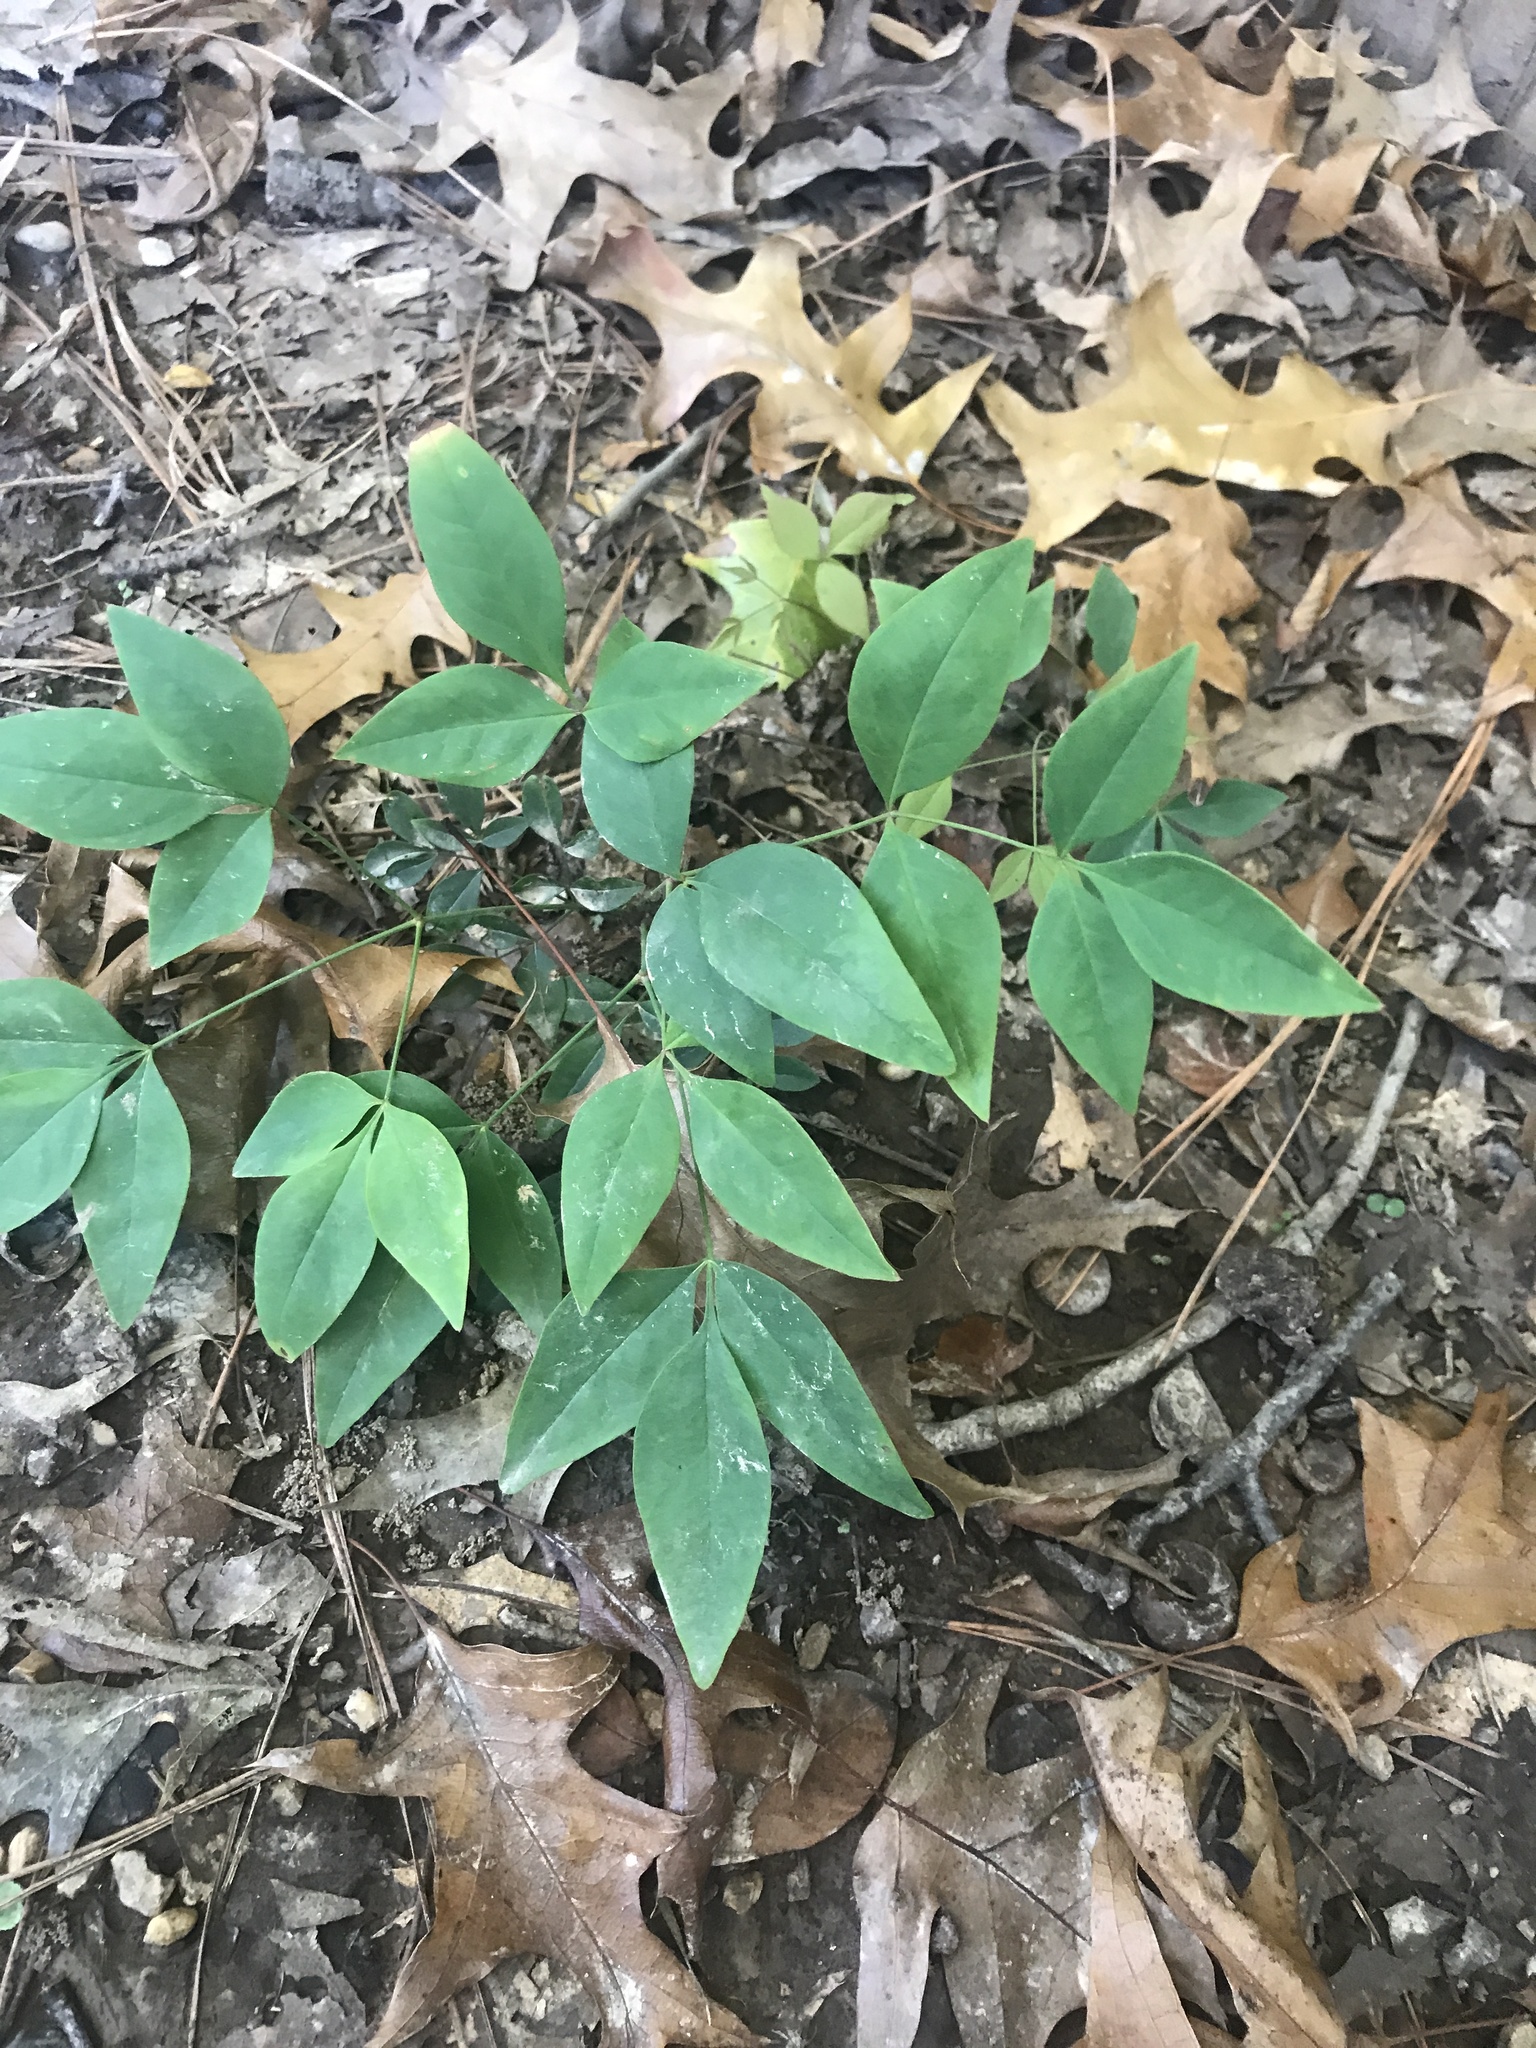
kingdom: Plantae
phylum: Tracheophyta
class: Magnoliopsida
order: Ranunculales
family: Berberidaceae
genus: Nandina
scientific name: Nandina domestica
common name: Sacred bamboo
